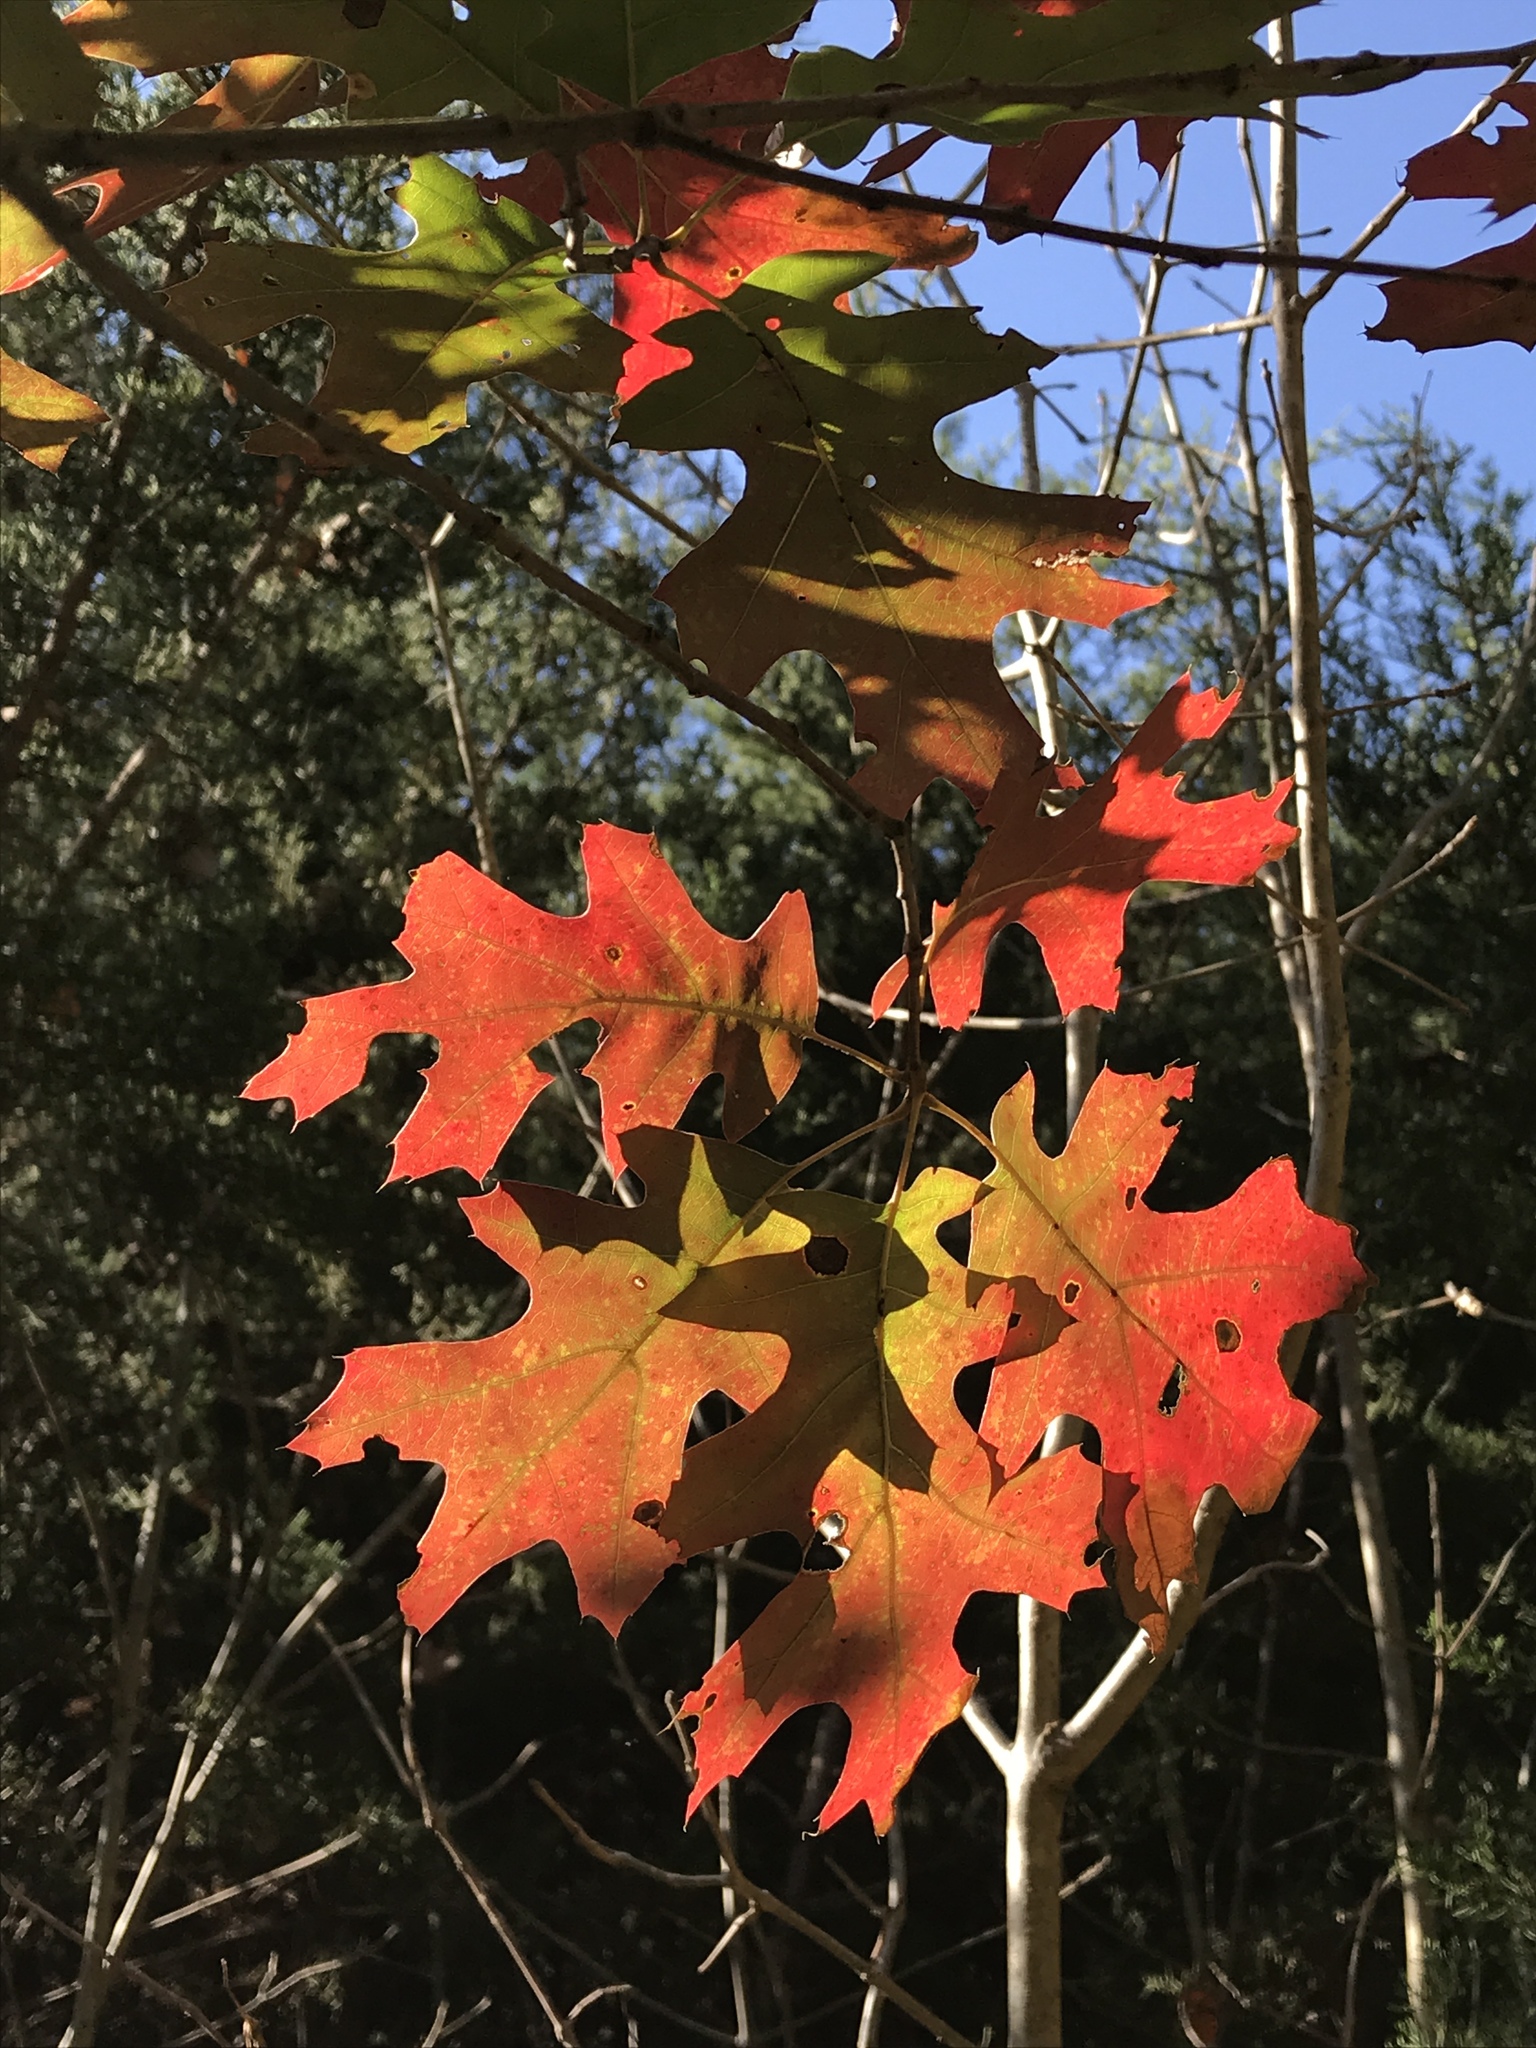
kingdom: Plantae
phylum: Tracheophyta
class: Magnoliopsida
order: Fagales
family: Fagaceae
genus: Quercus
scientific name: Quercus buckleyi
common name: Buckley oak
